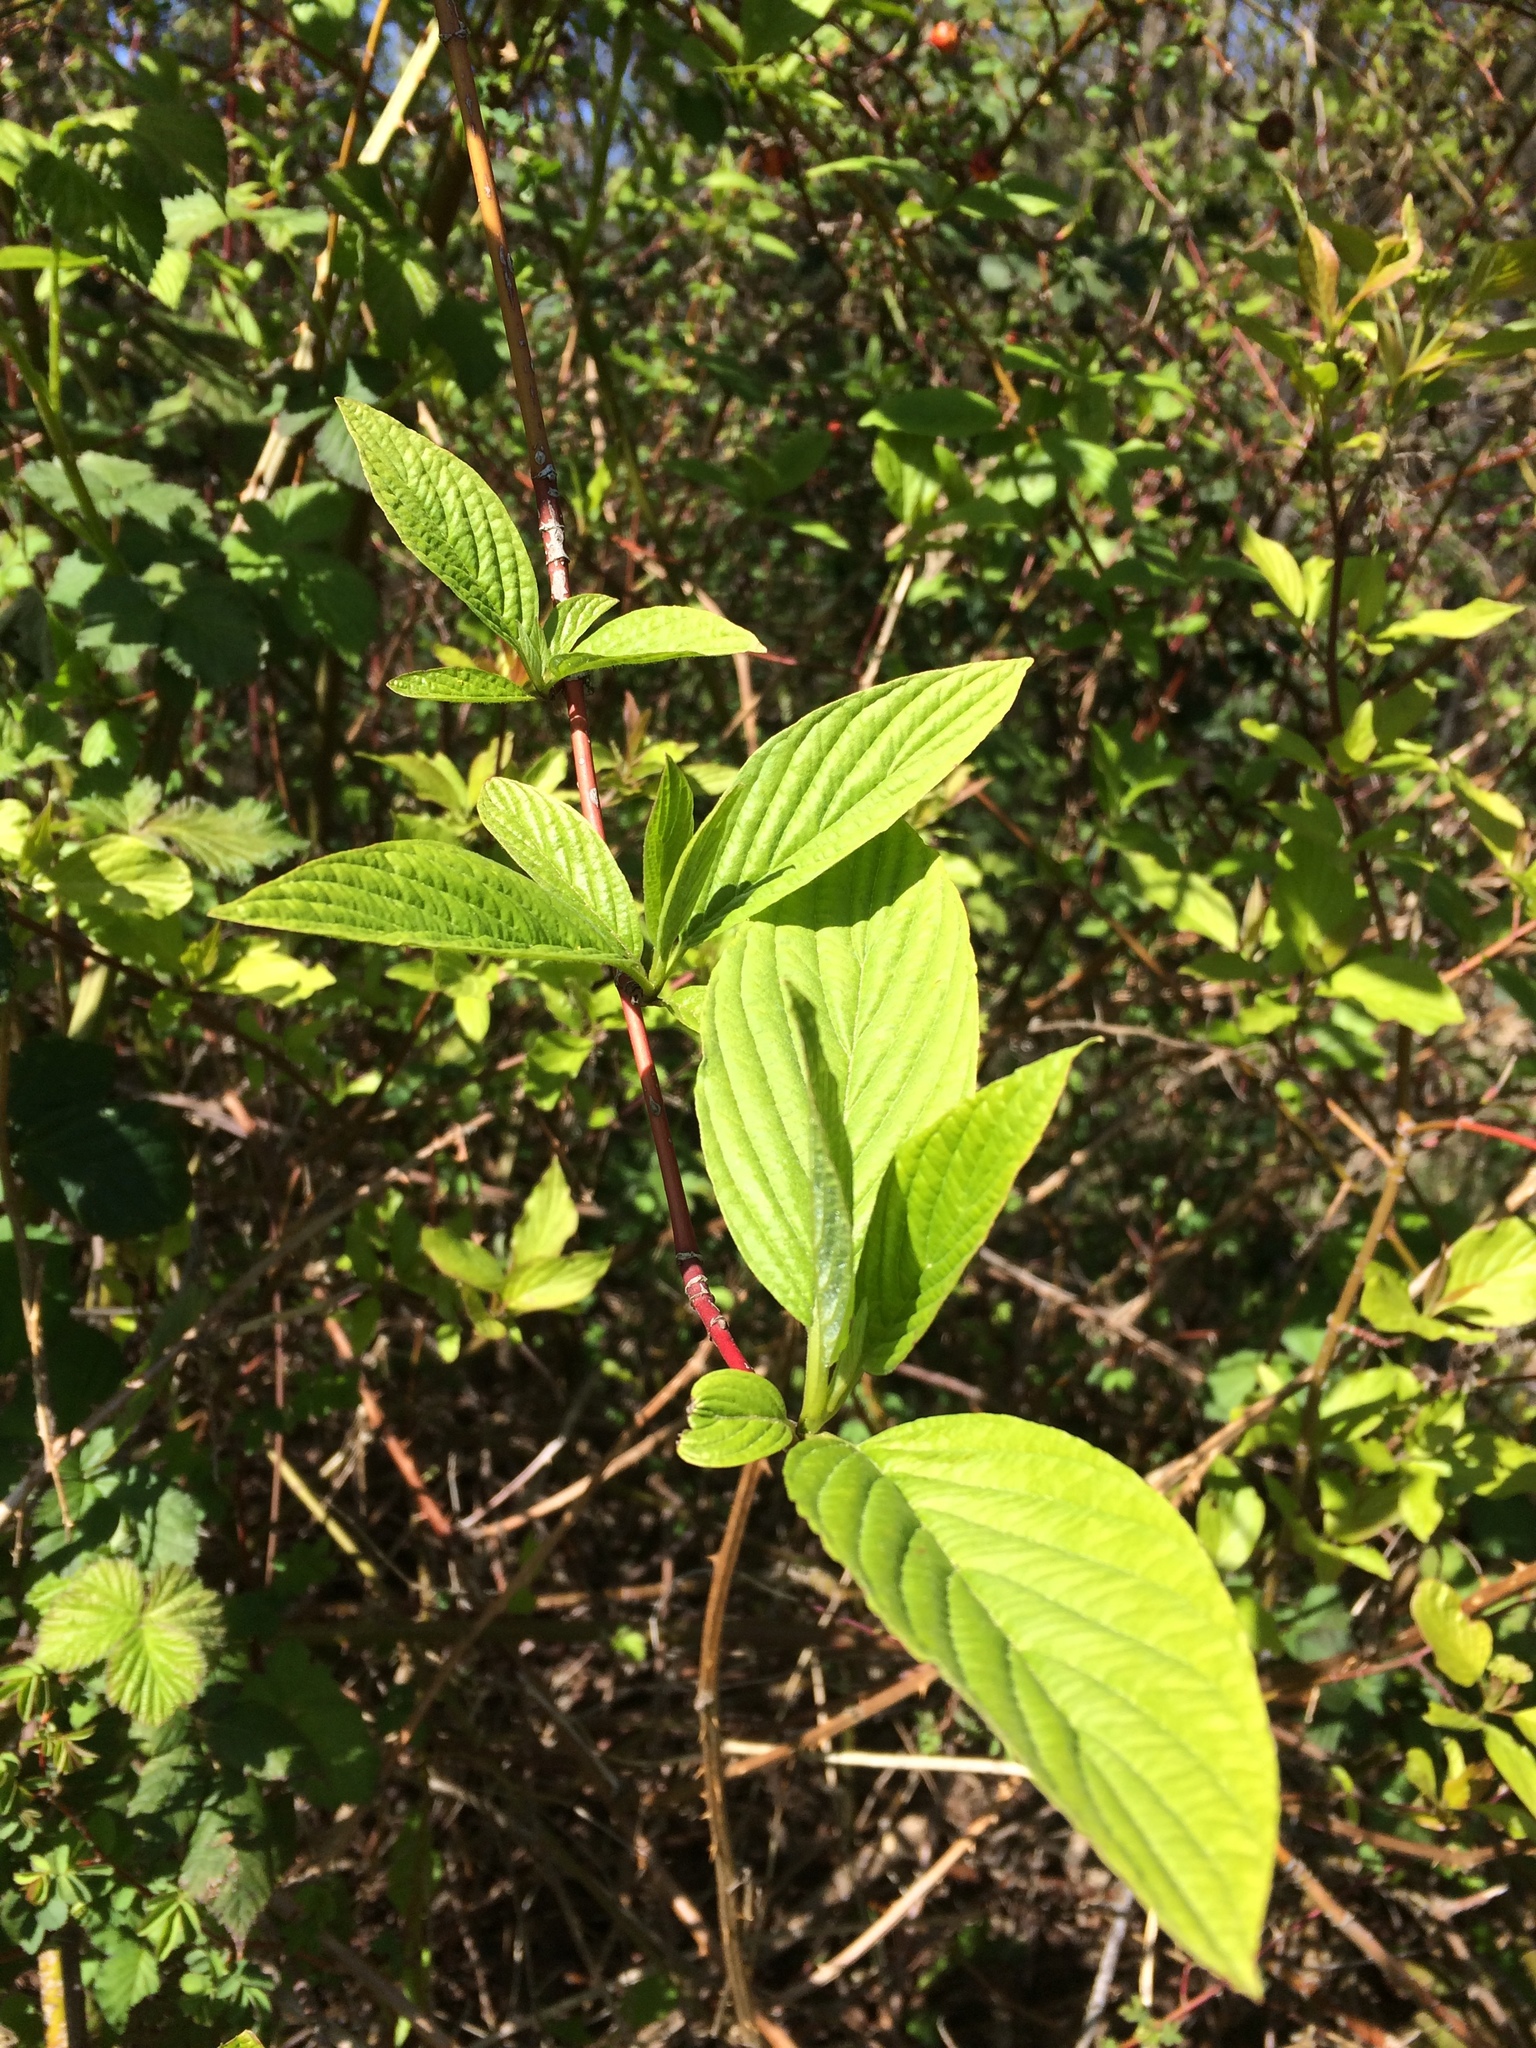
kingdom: Plantae
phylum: Tracheophyta
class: Magnoliopsida
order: Cornales
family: Cornaceae
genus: Cornus
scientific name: Cornus sericea
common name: Red-osier dogwood
